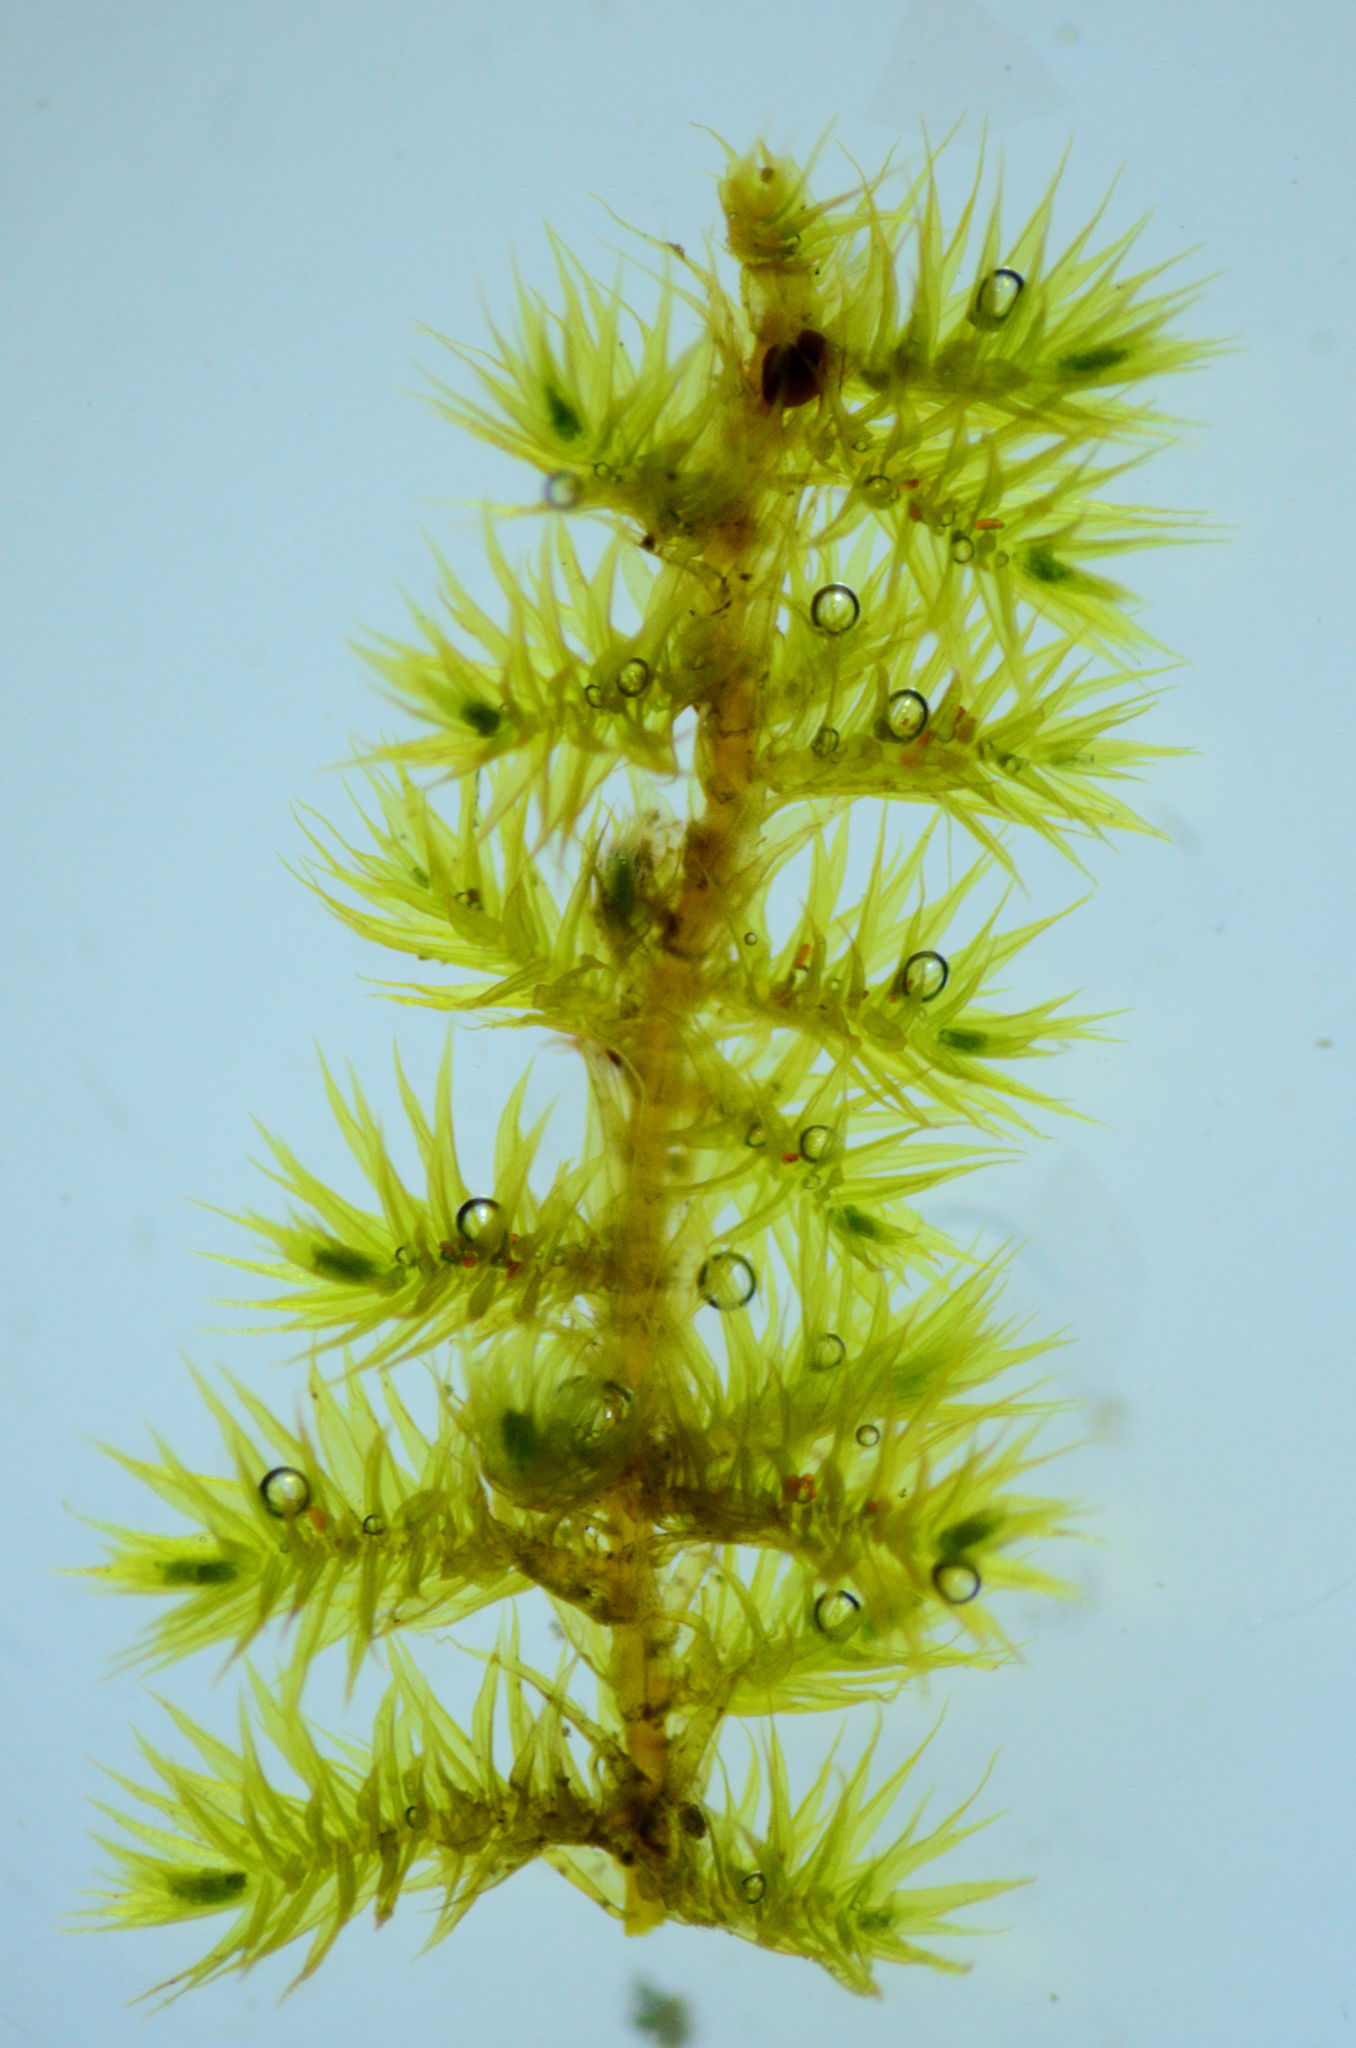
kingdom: Plantae
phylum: Bryophyta
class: Bryopsida
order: Hypnales
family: Brachytheciaceae
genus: Homalothecium
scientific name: Homalothecium nuttallii
